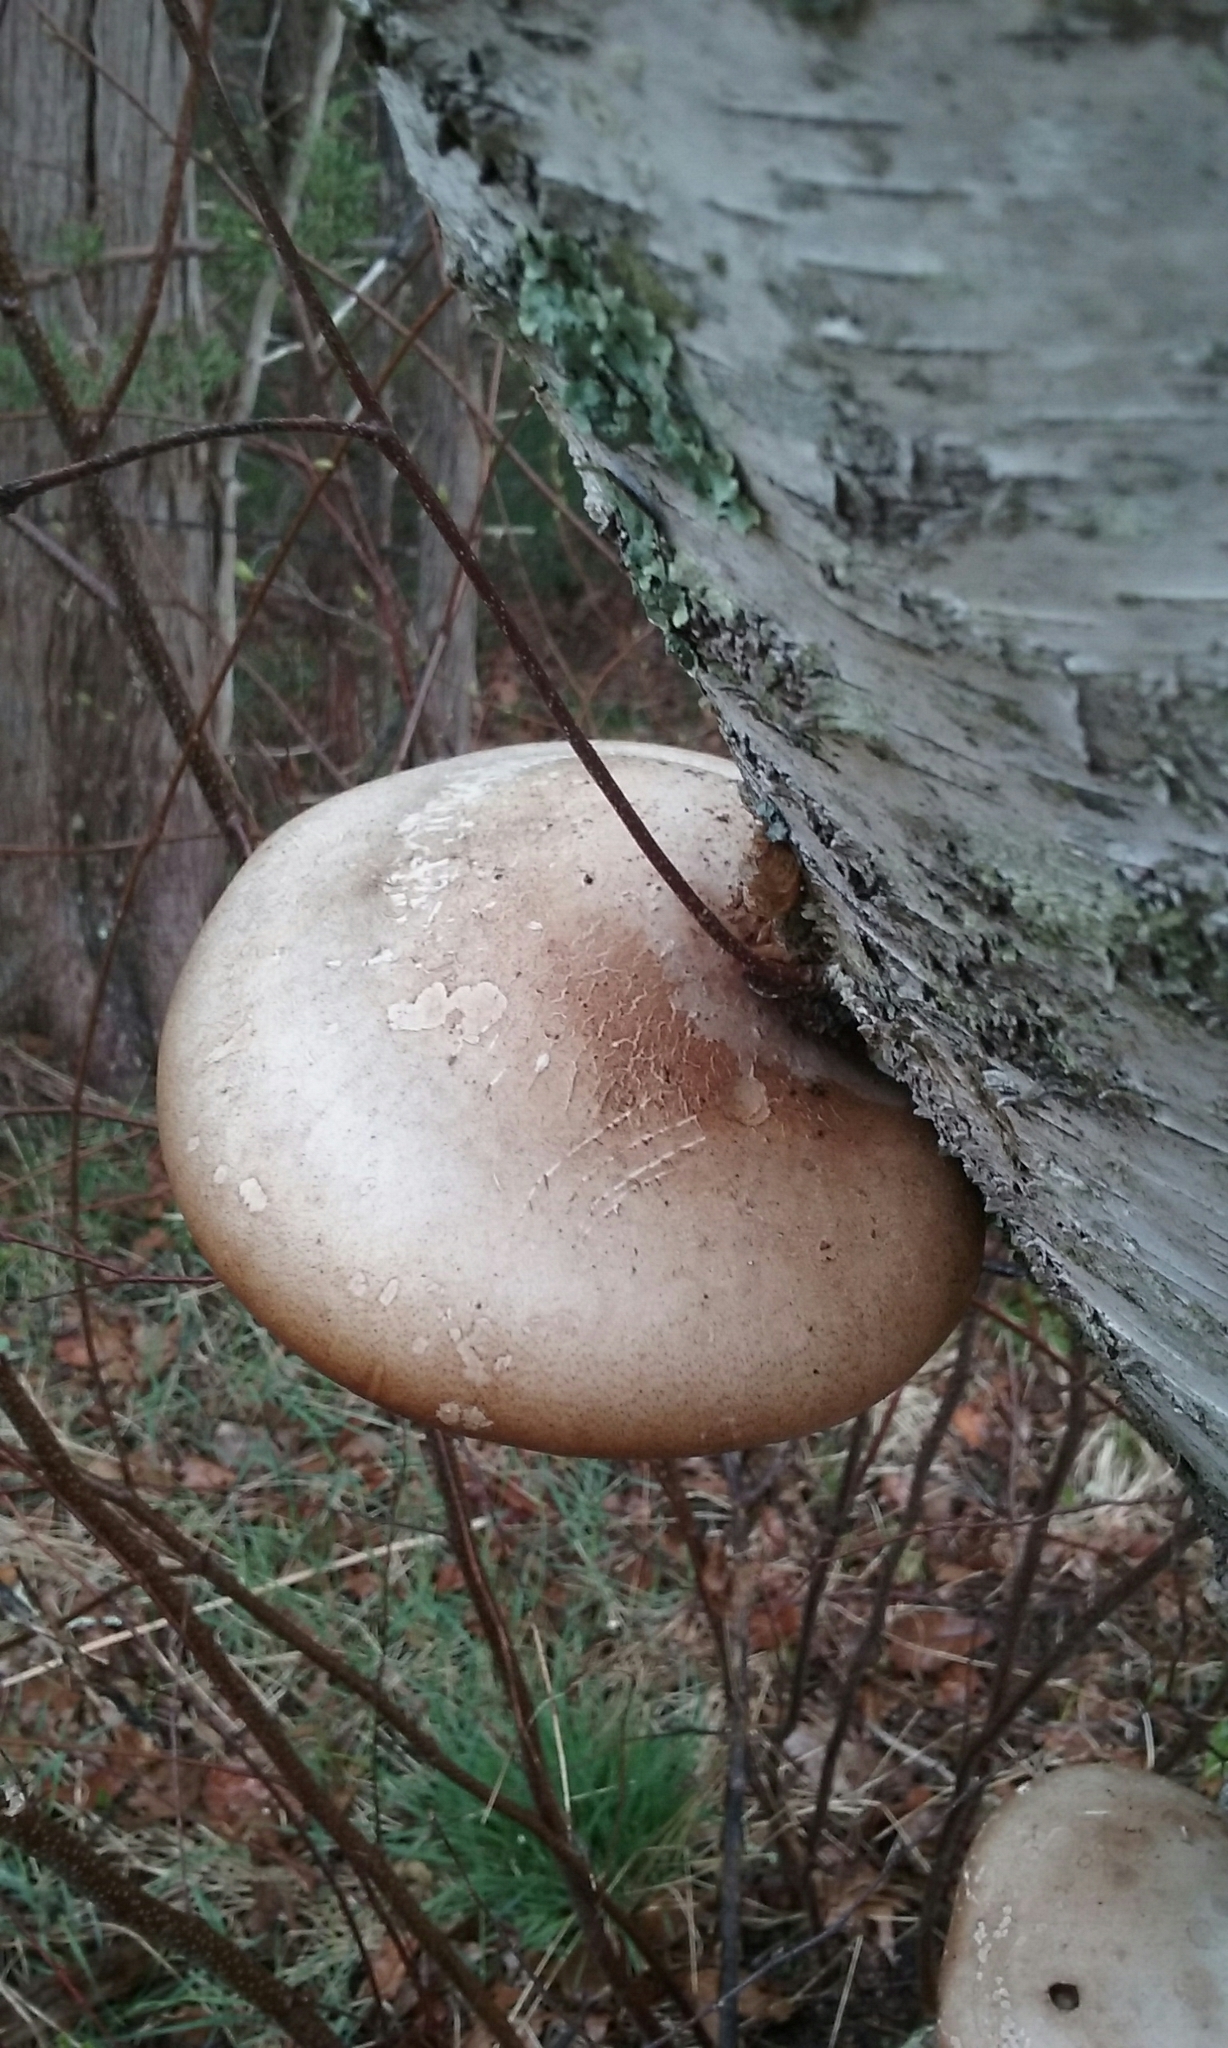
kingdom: Fungi
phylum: Basidiomycota
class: Agaricomycetes
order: Polyporales
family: Fomitopsidaceae
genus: Fomitopsis
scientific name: Fomitopsis betulina
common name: Birch polypore
